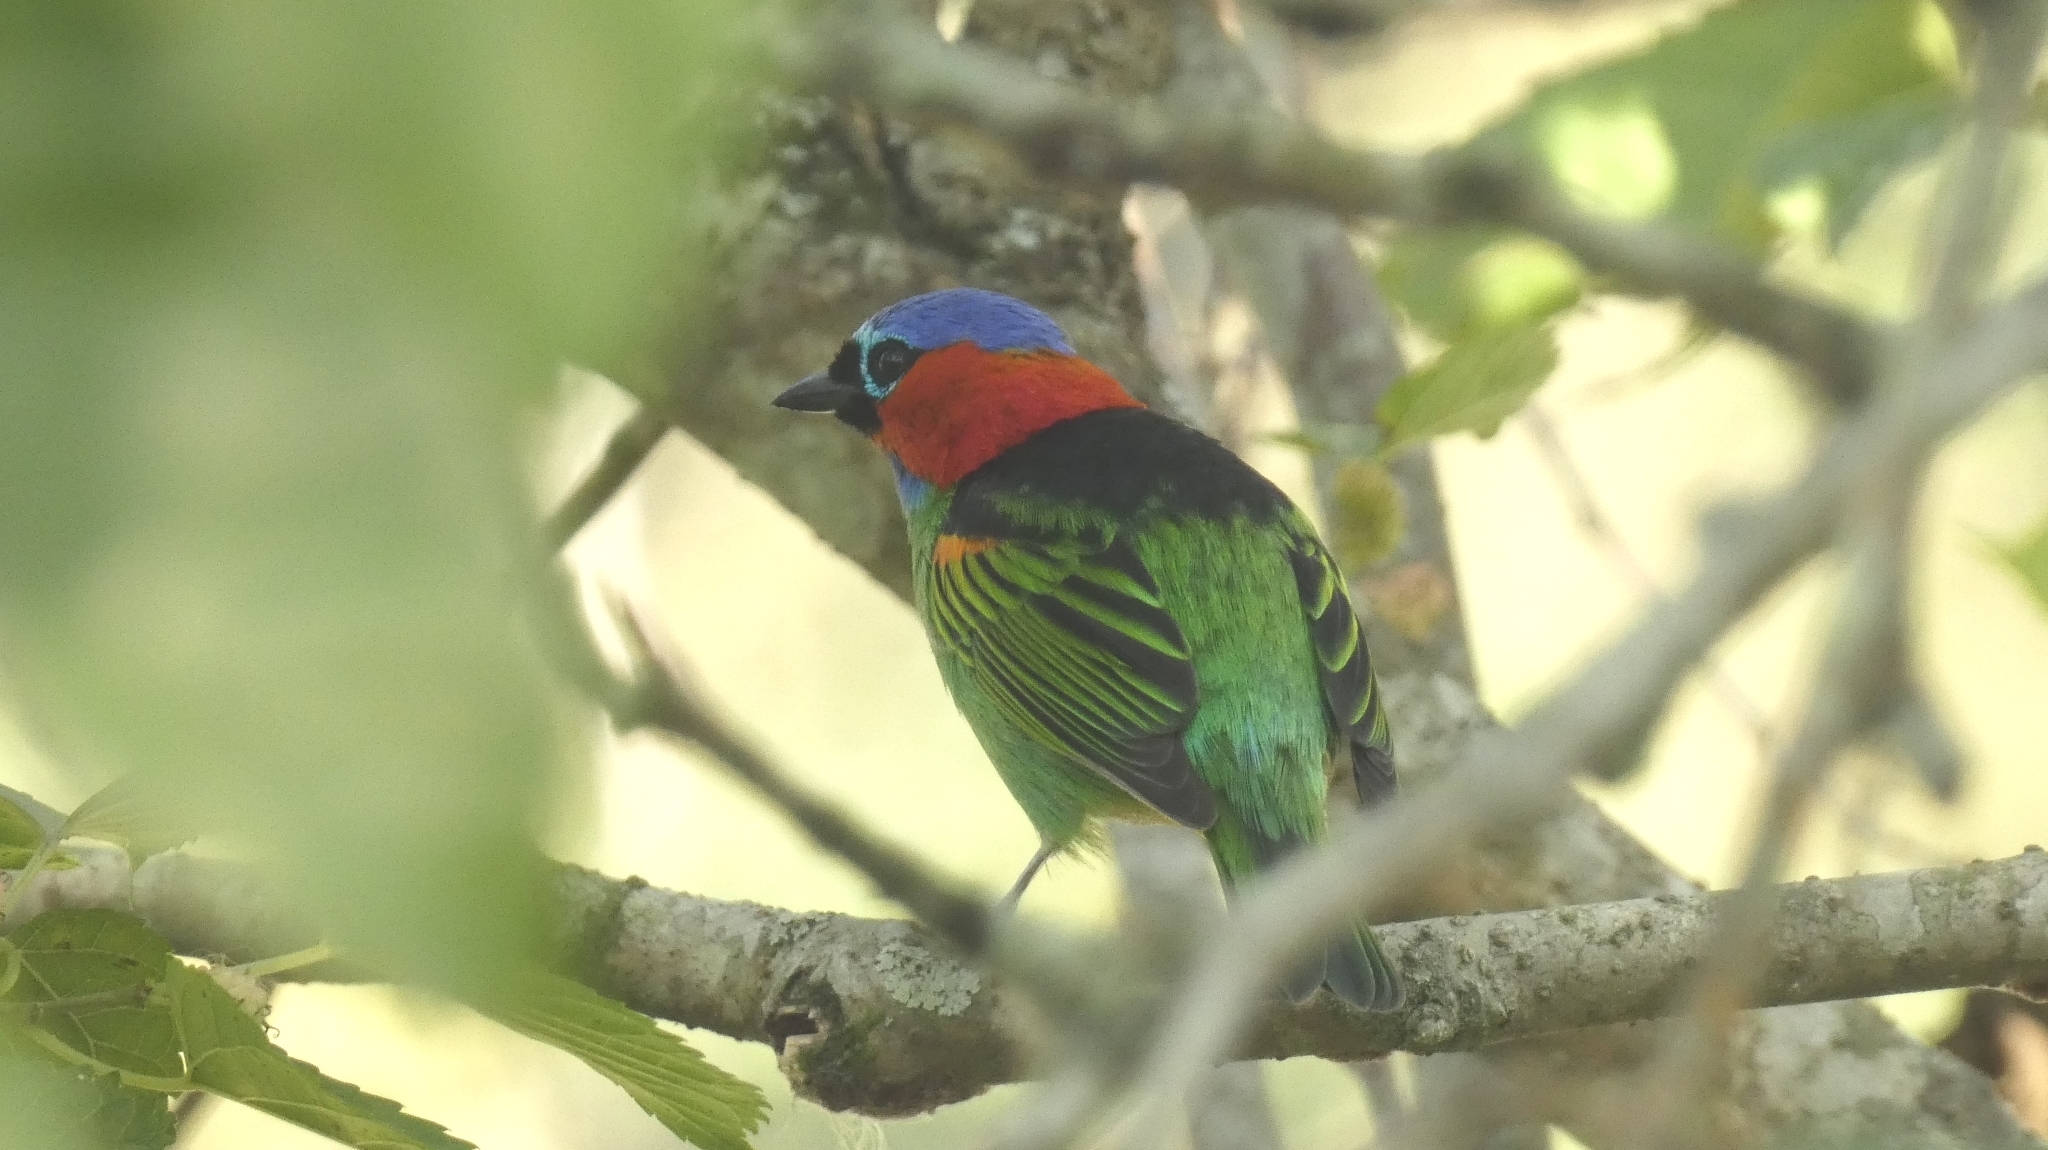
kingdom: Animalia
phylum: Chordata
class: Aves
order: Passeriformes
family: Thraupidae
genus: Tangara
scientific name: Tangara cyanocephala
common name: Red-necked tanager
